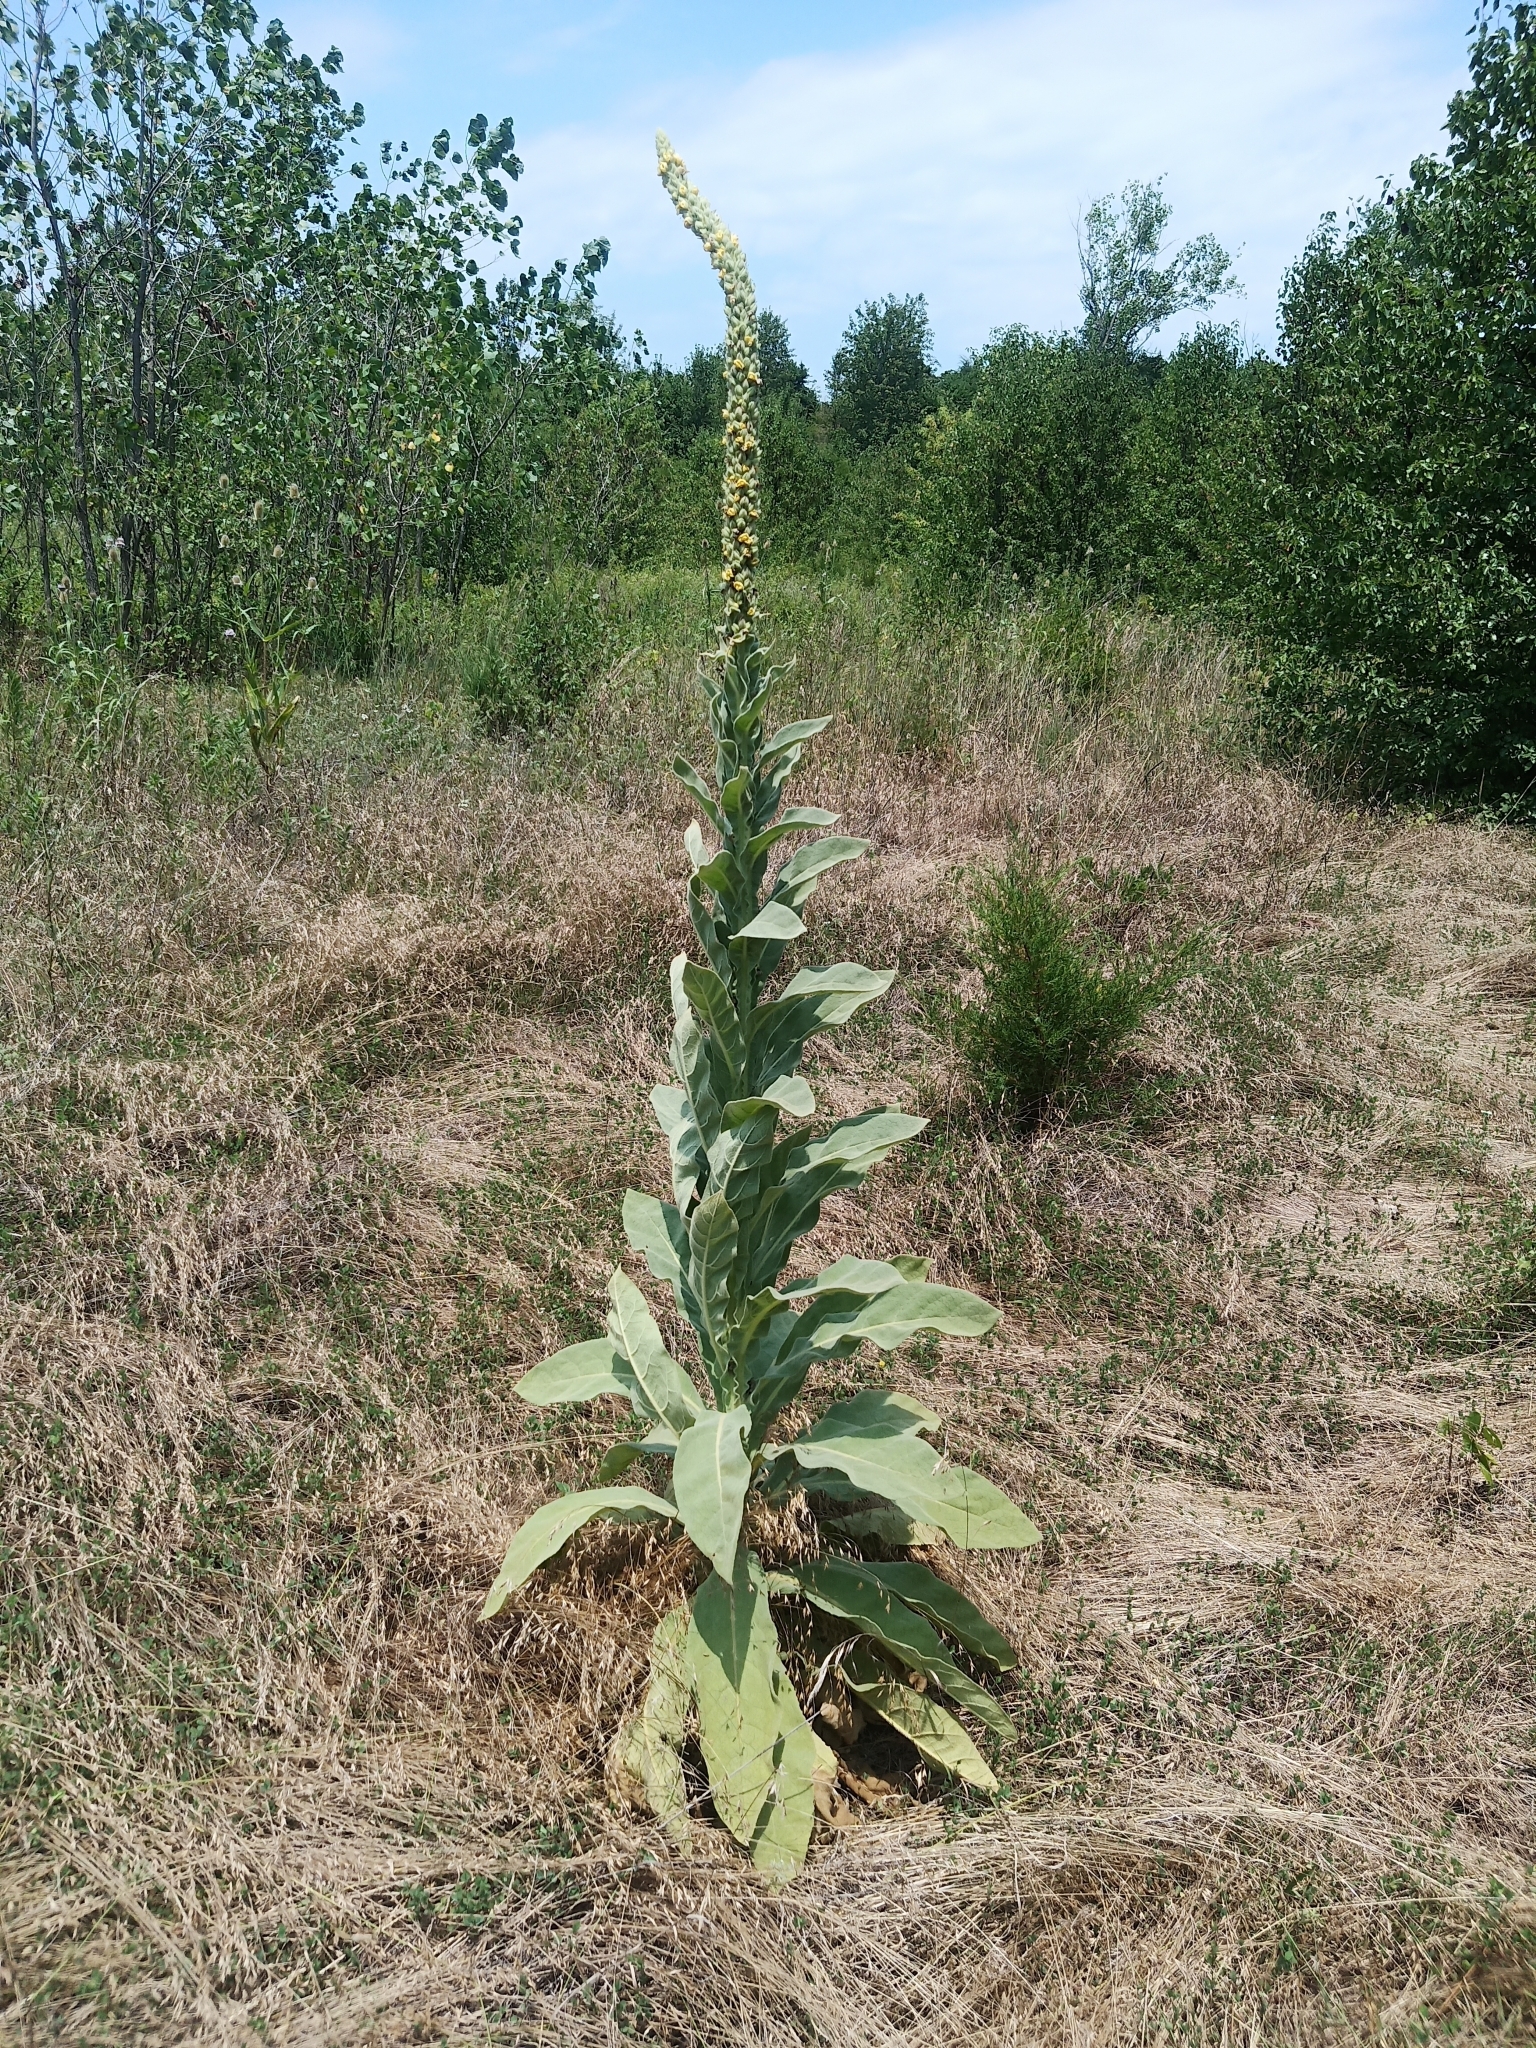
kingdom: Plantae
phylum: Tracheophyta
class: Magnoliopsida
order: Lamiales
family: Scrophulariaceae
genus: Verbascum
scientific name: Verbascum thapsus
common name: Common mullein
